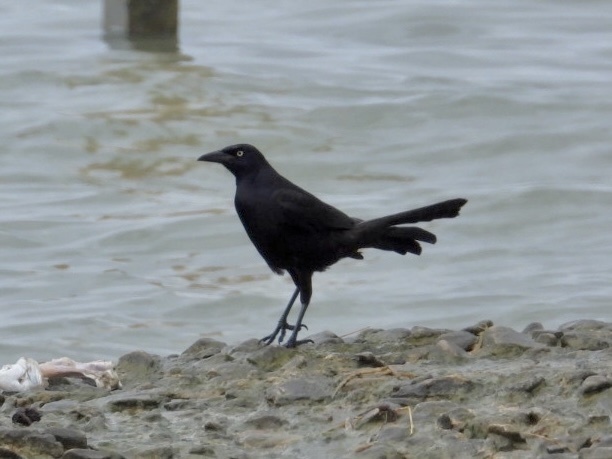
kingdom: Animalia
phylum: Chordata
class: Aves
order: Passeriformes
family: Icteridae
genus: Quiscalus
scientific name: Quiscalus quiscula
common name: Common grackle
